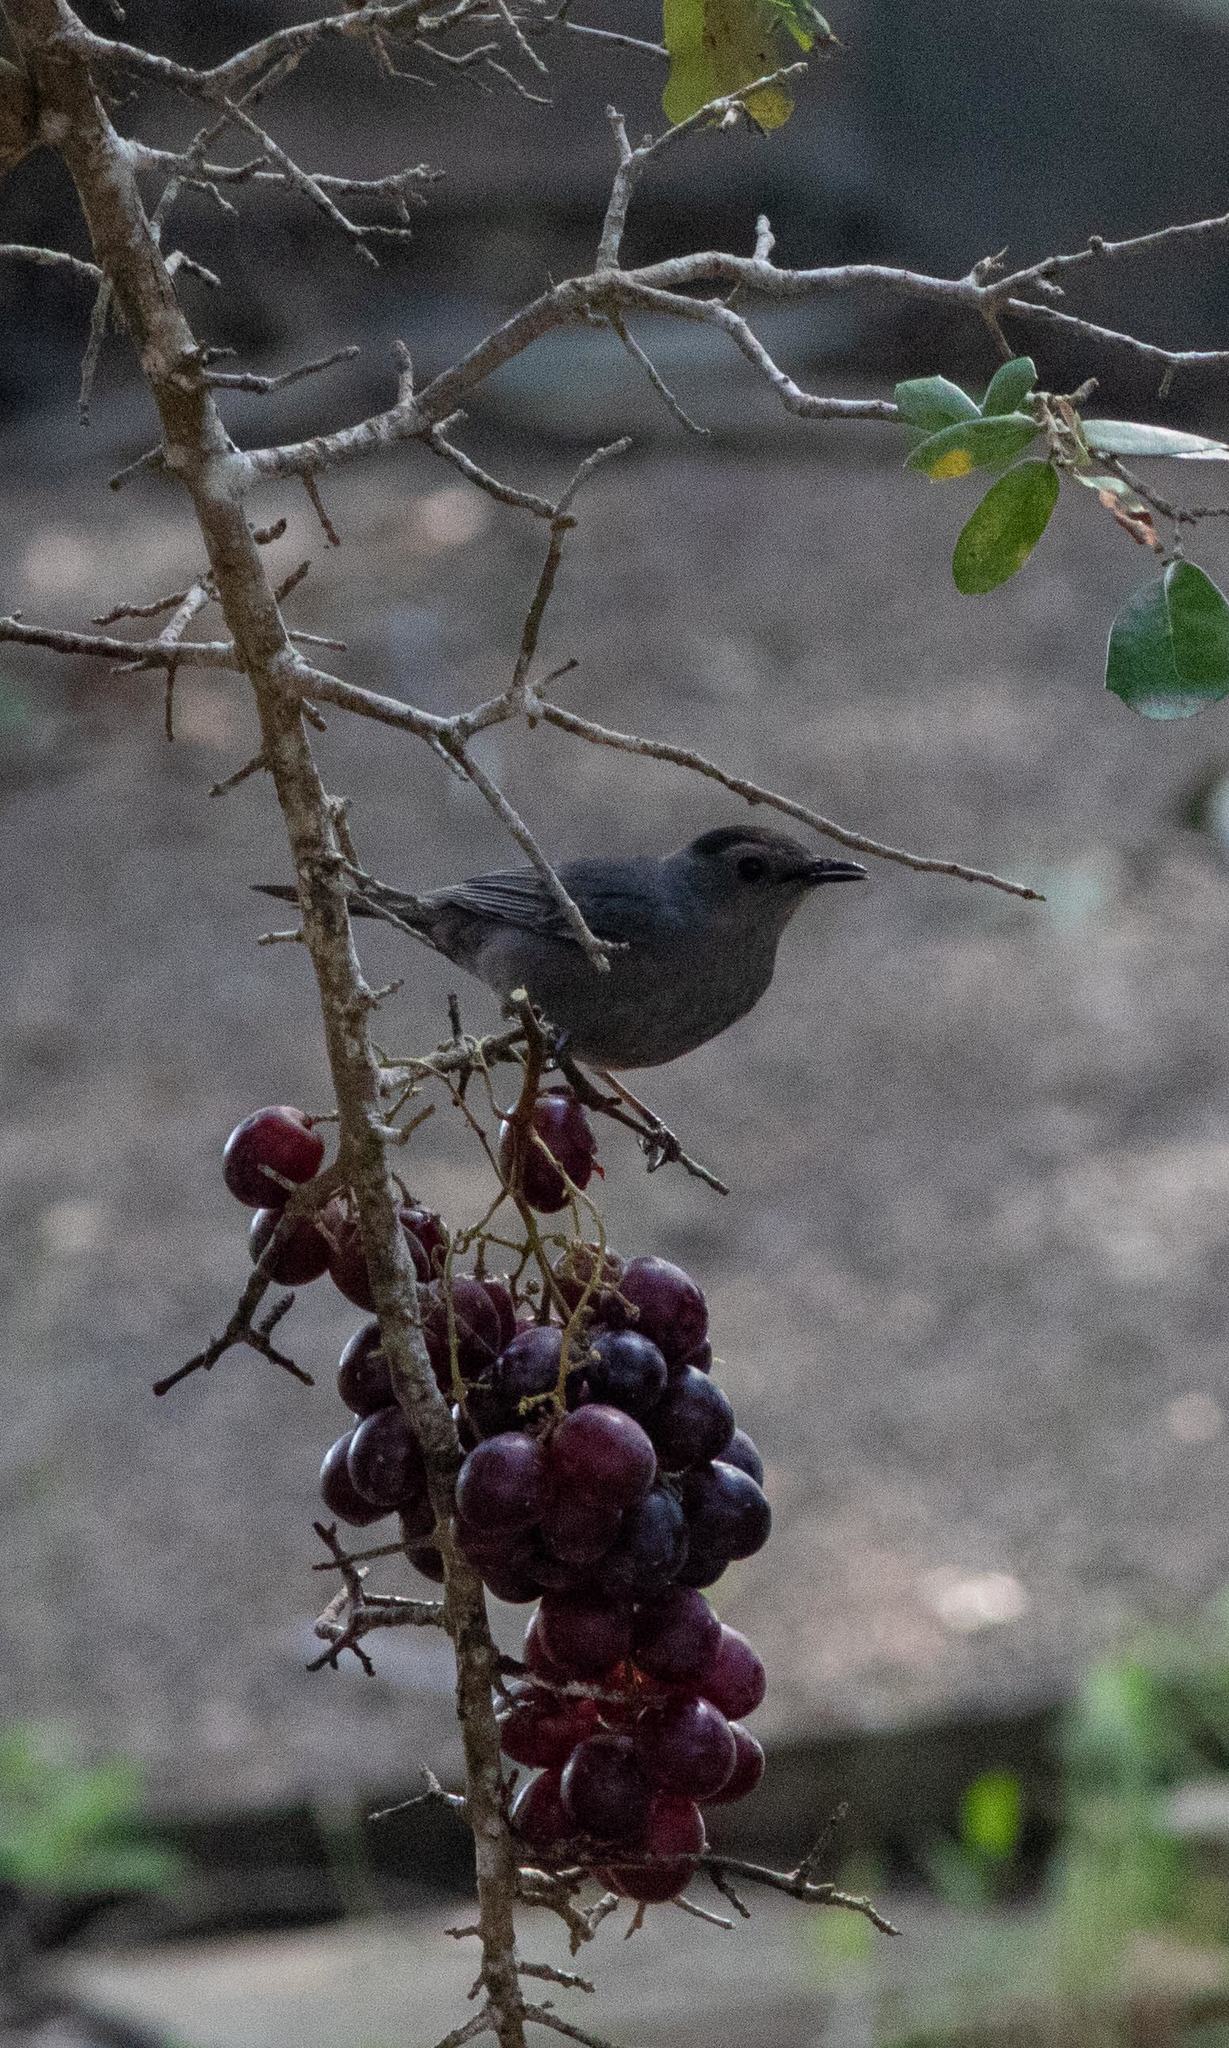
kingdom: Animalia
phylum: Chordata
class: Aves
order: Passeriformes
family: Mimidae
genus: Dumetella
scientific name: Dumetella carolinensis
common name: Gray catbird
